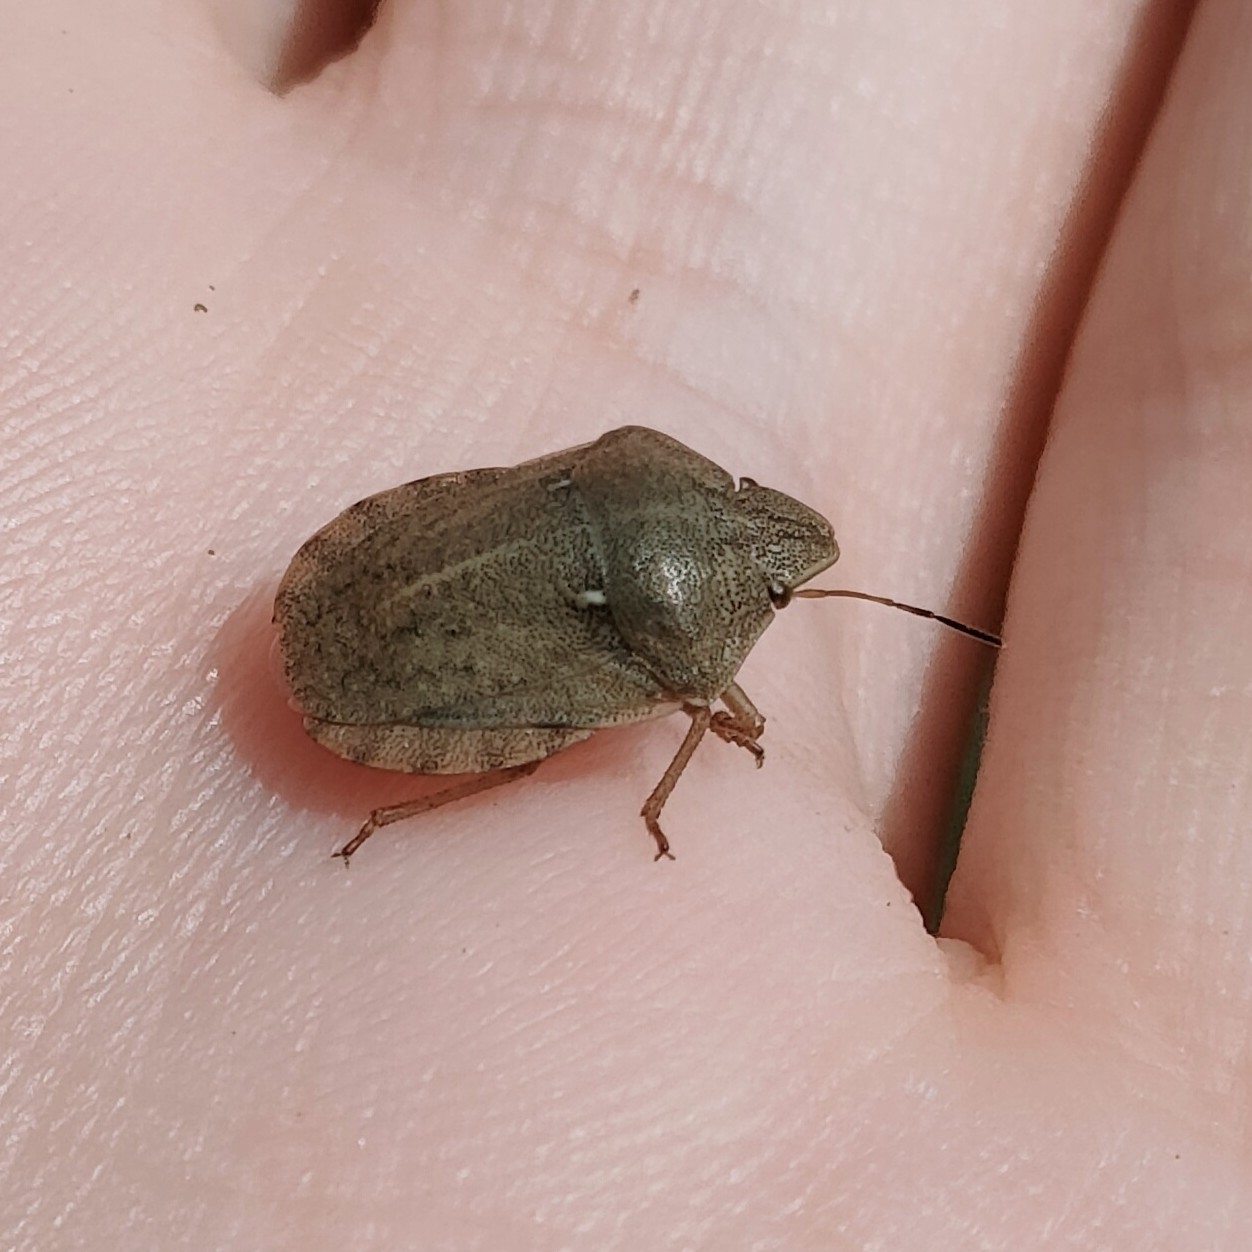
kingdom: Animalia
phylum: Arthropoda
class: Insecta
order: Hemiptera
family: Scutelleridae
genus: Eurygaster
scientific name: Eurygaster testudinaria
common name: Tortoise bug
